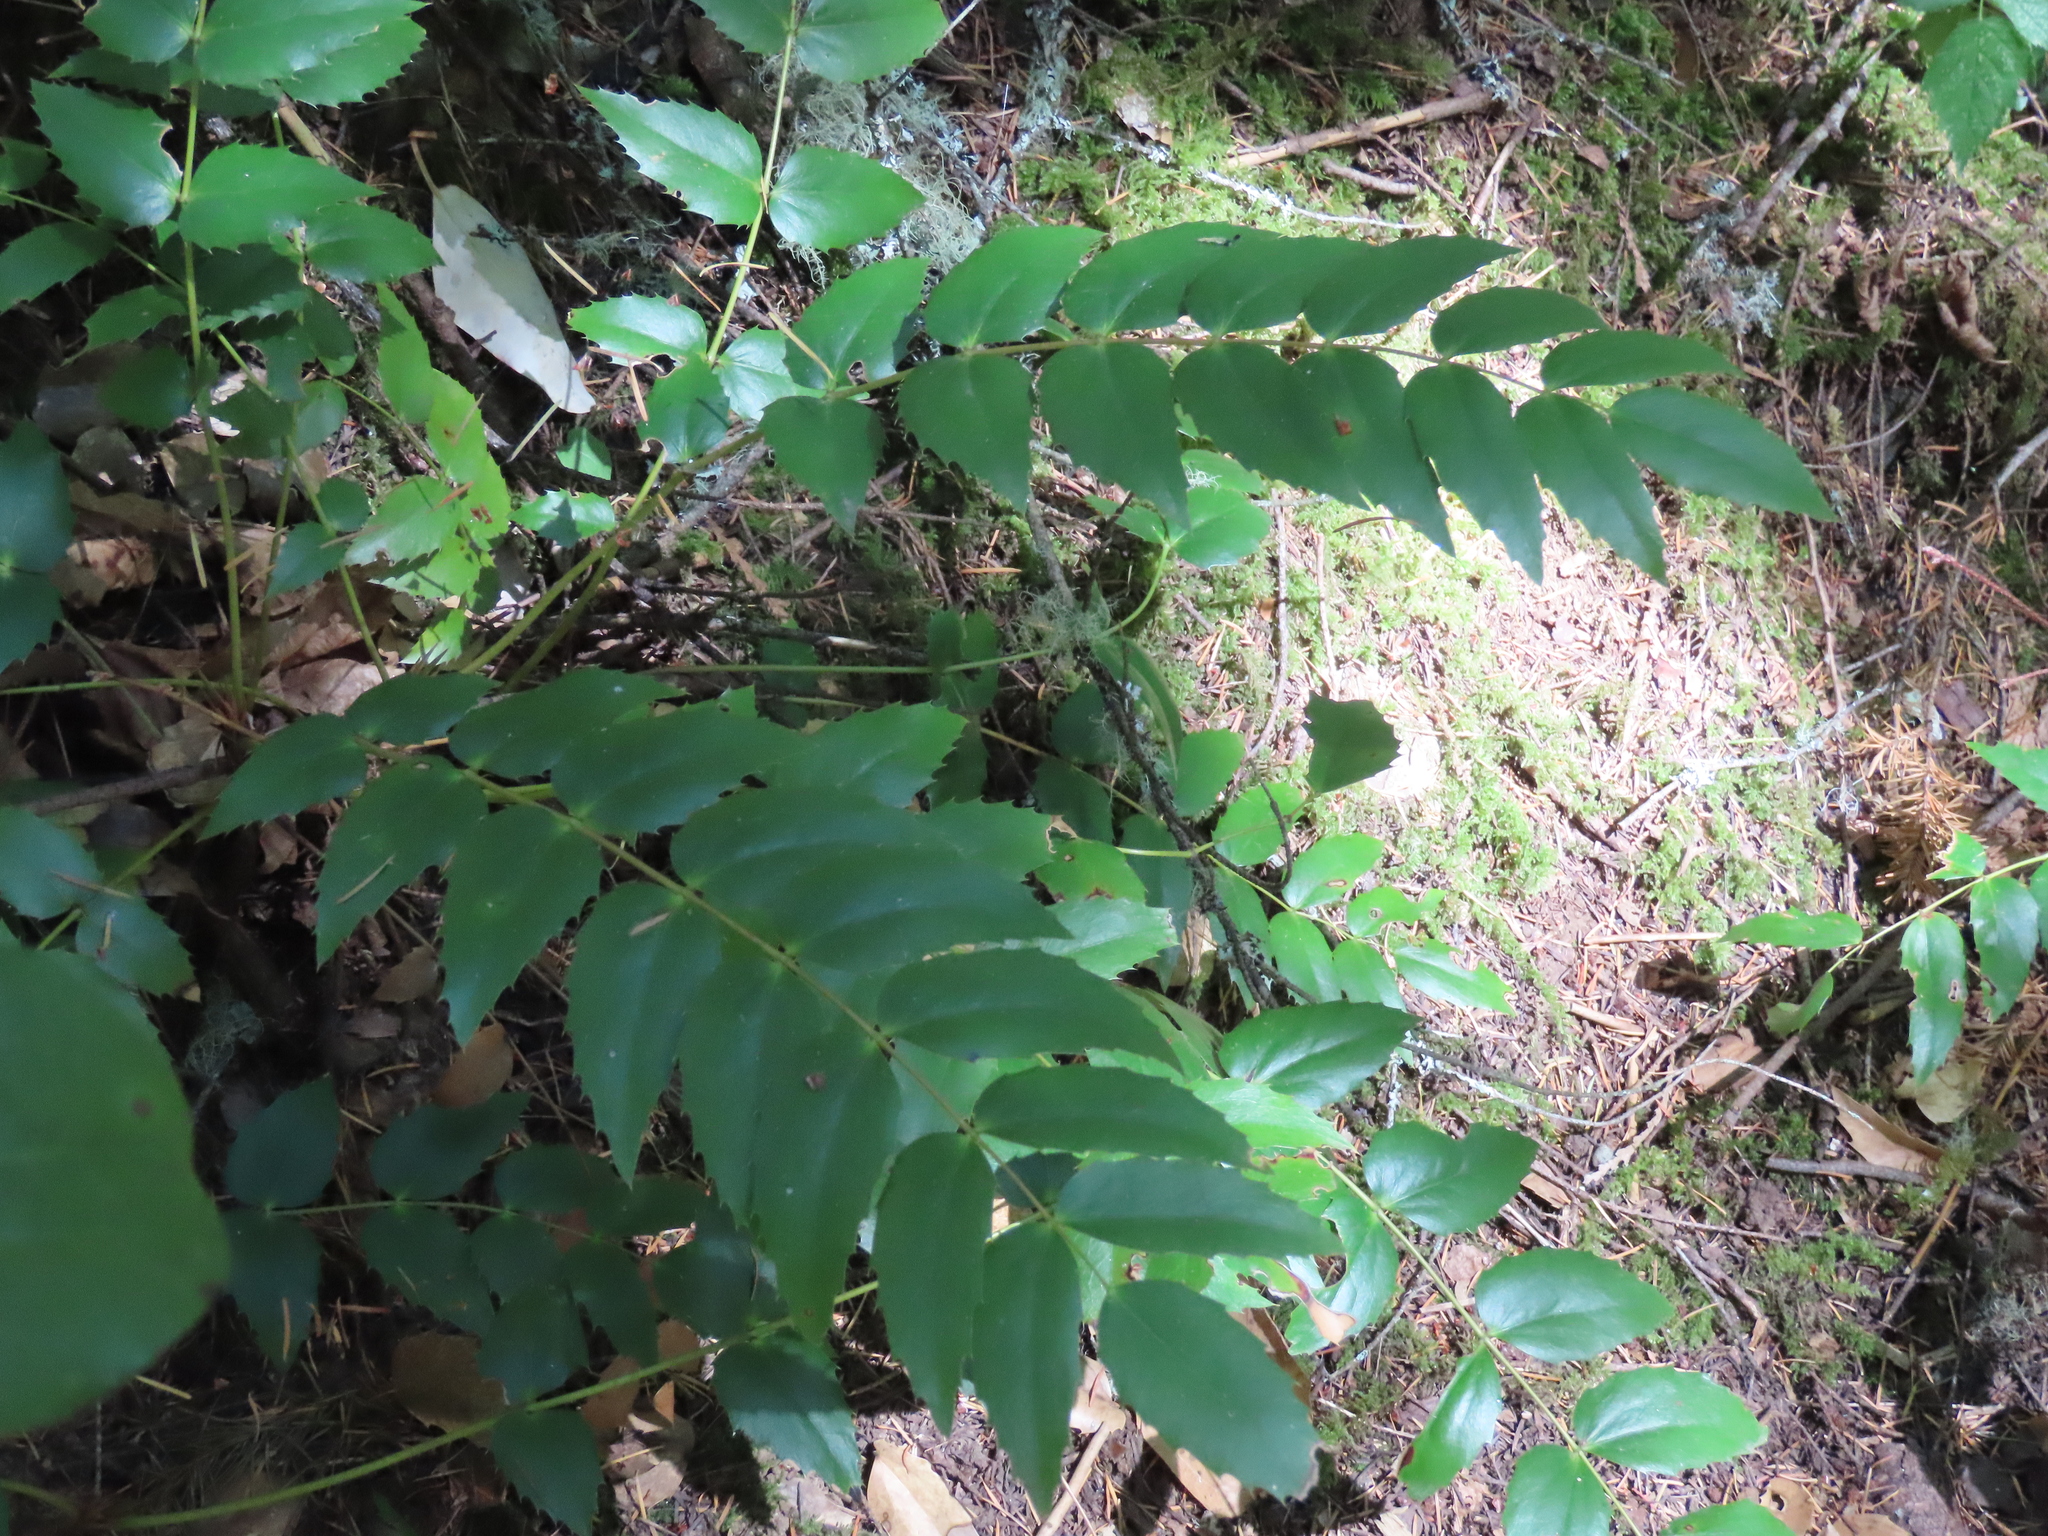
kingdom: Plantae
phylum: Tracheophyta
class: Magnoliopsida
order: Ranunculales
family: Berberidaceae
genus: Mahonia
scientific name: Mahonia nervosa
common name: Cascade oregon-grape
